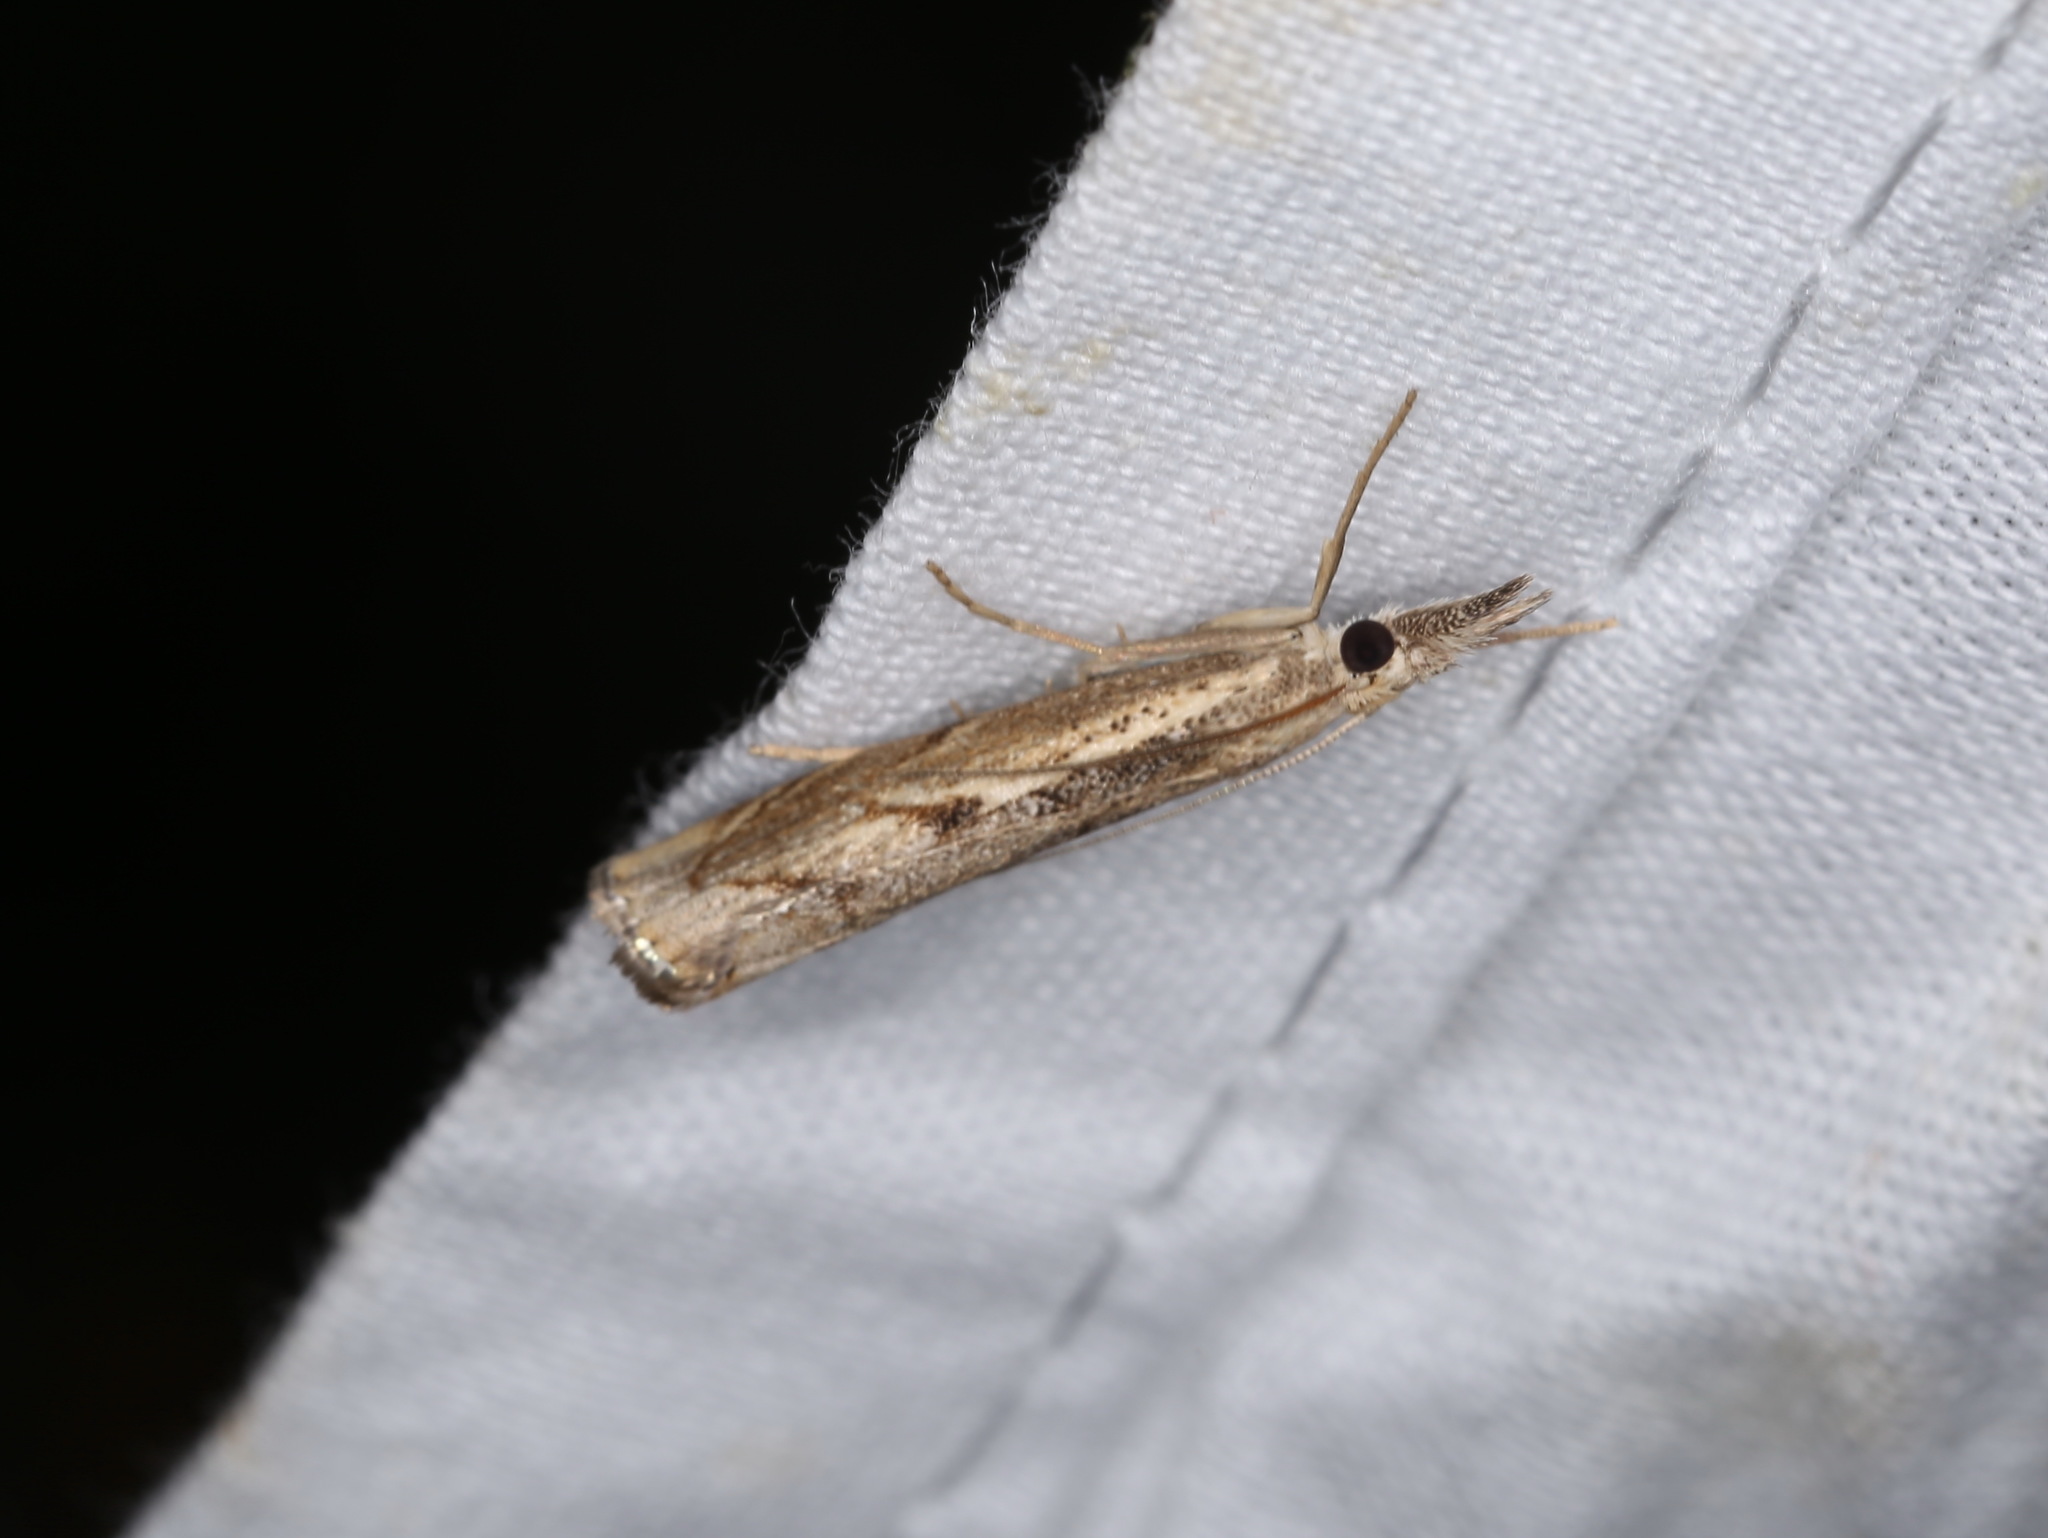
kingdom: Animalia
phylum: Arthropoda
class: Insecta
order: Lepidoptera
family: Crambidae
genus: Agriphila
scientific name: Agriphila geniculea
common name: Elbow-stripe grass-veneer
